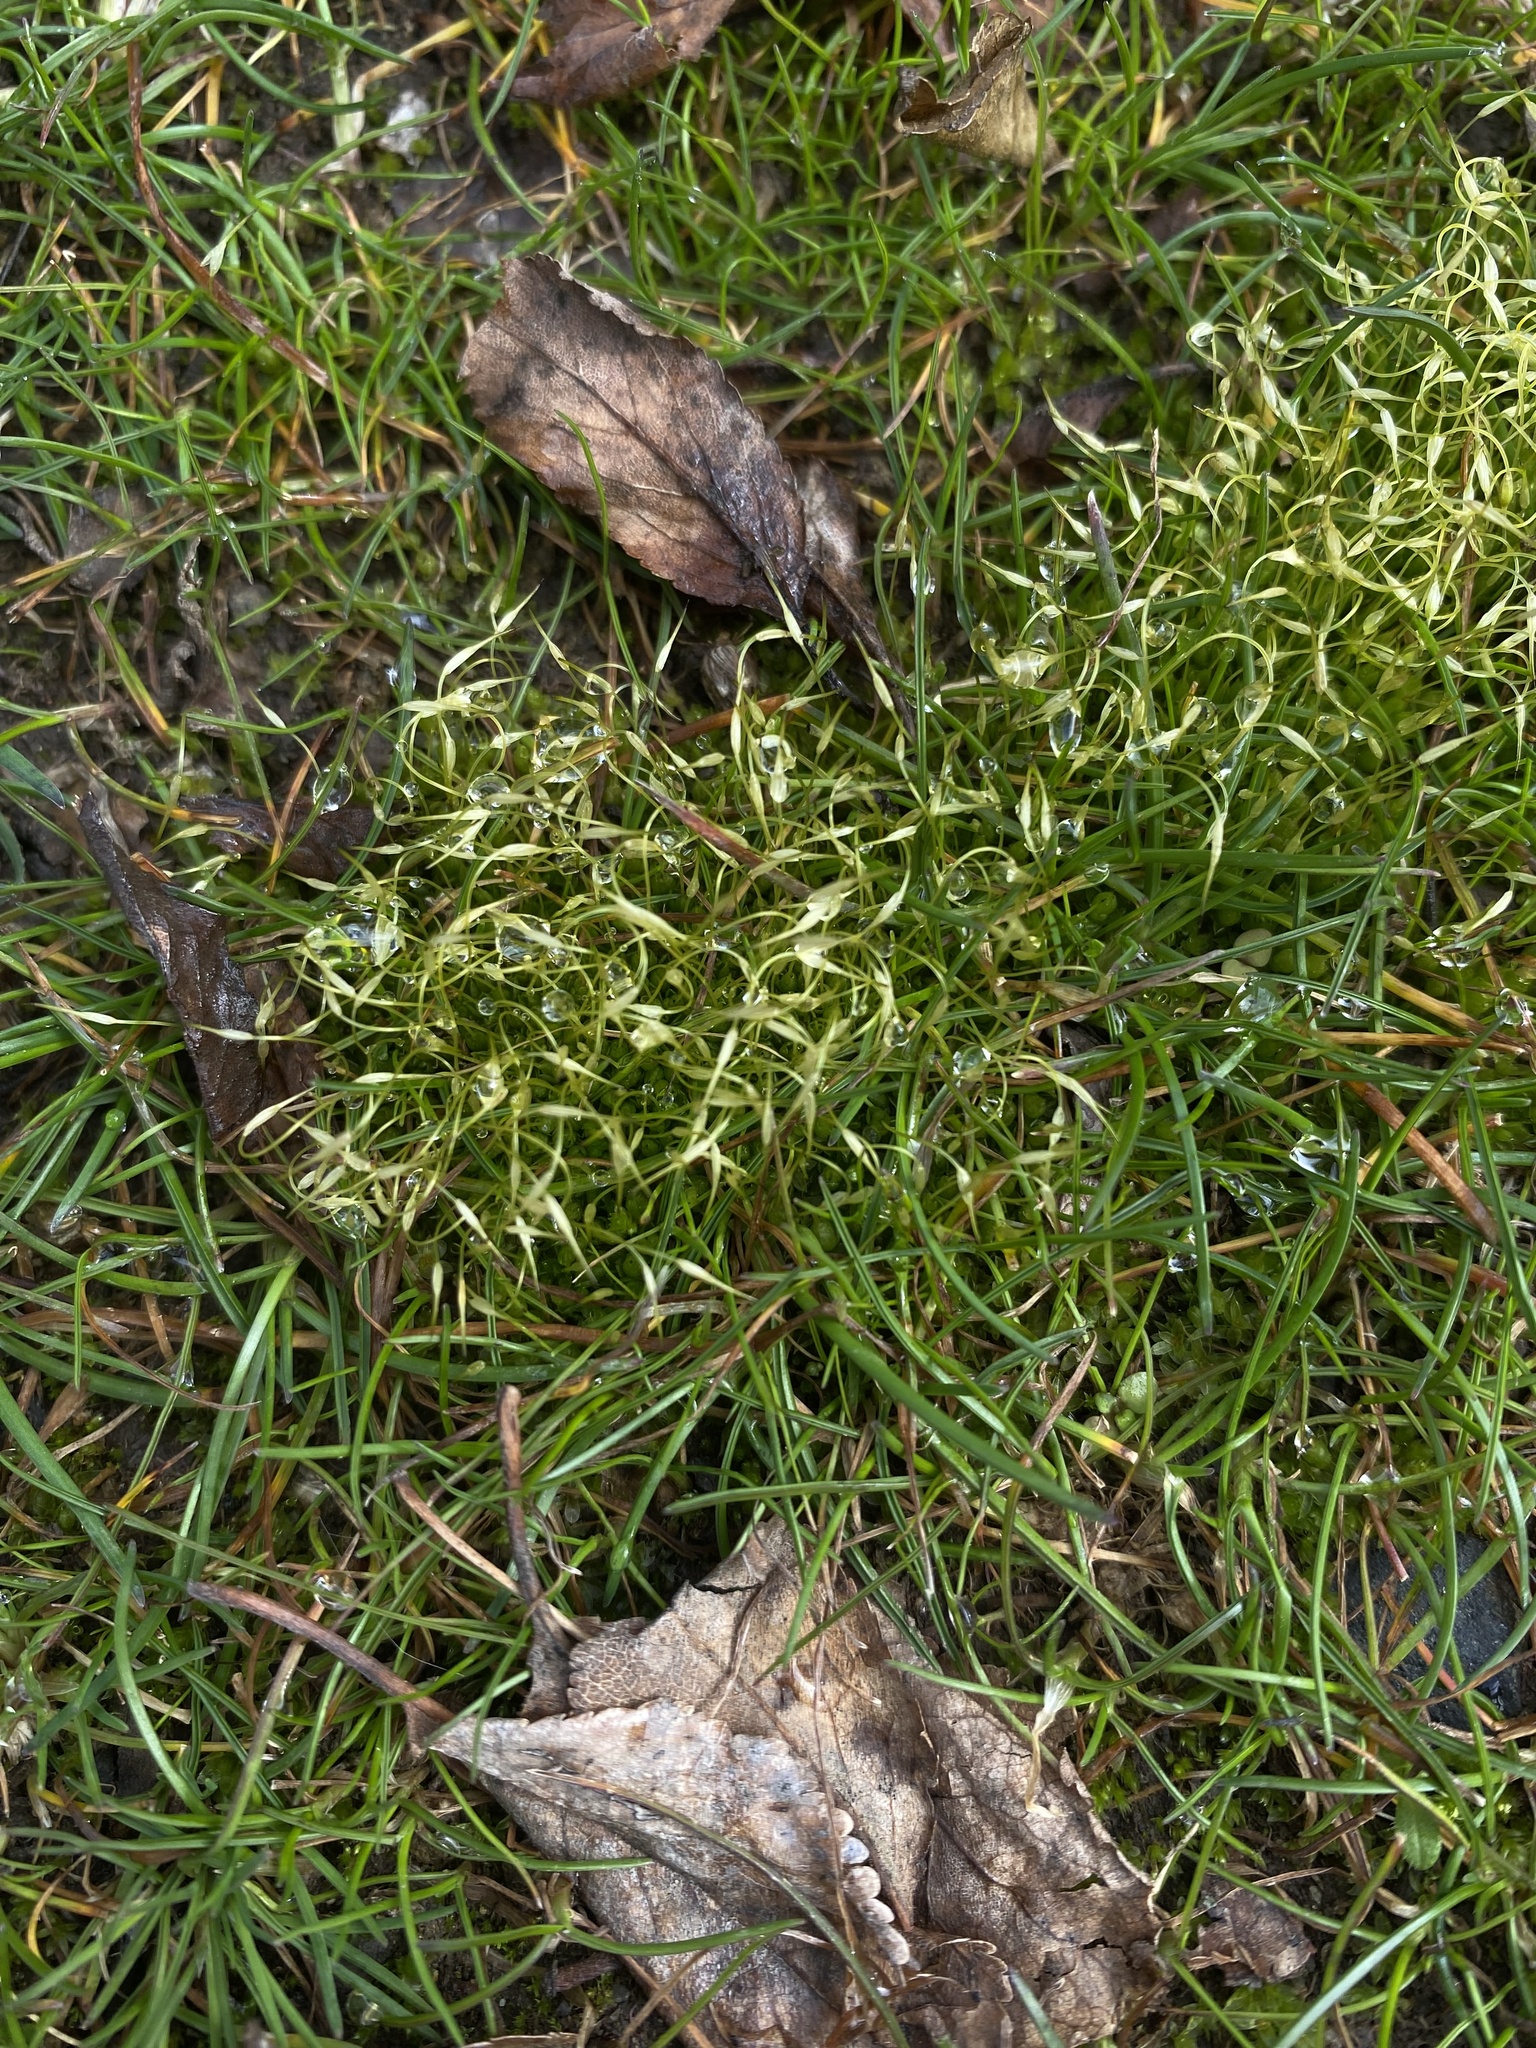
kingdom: Plantae
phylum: Bryophyta
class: Bryopsida
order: Funariales
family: Funariaceae
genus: Funaria
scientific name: Funaria hygrometrica
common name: Common cord moss
